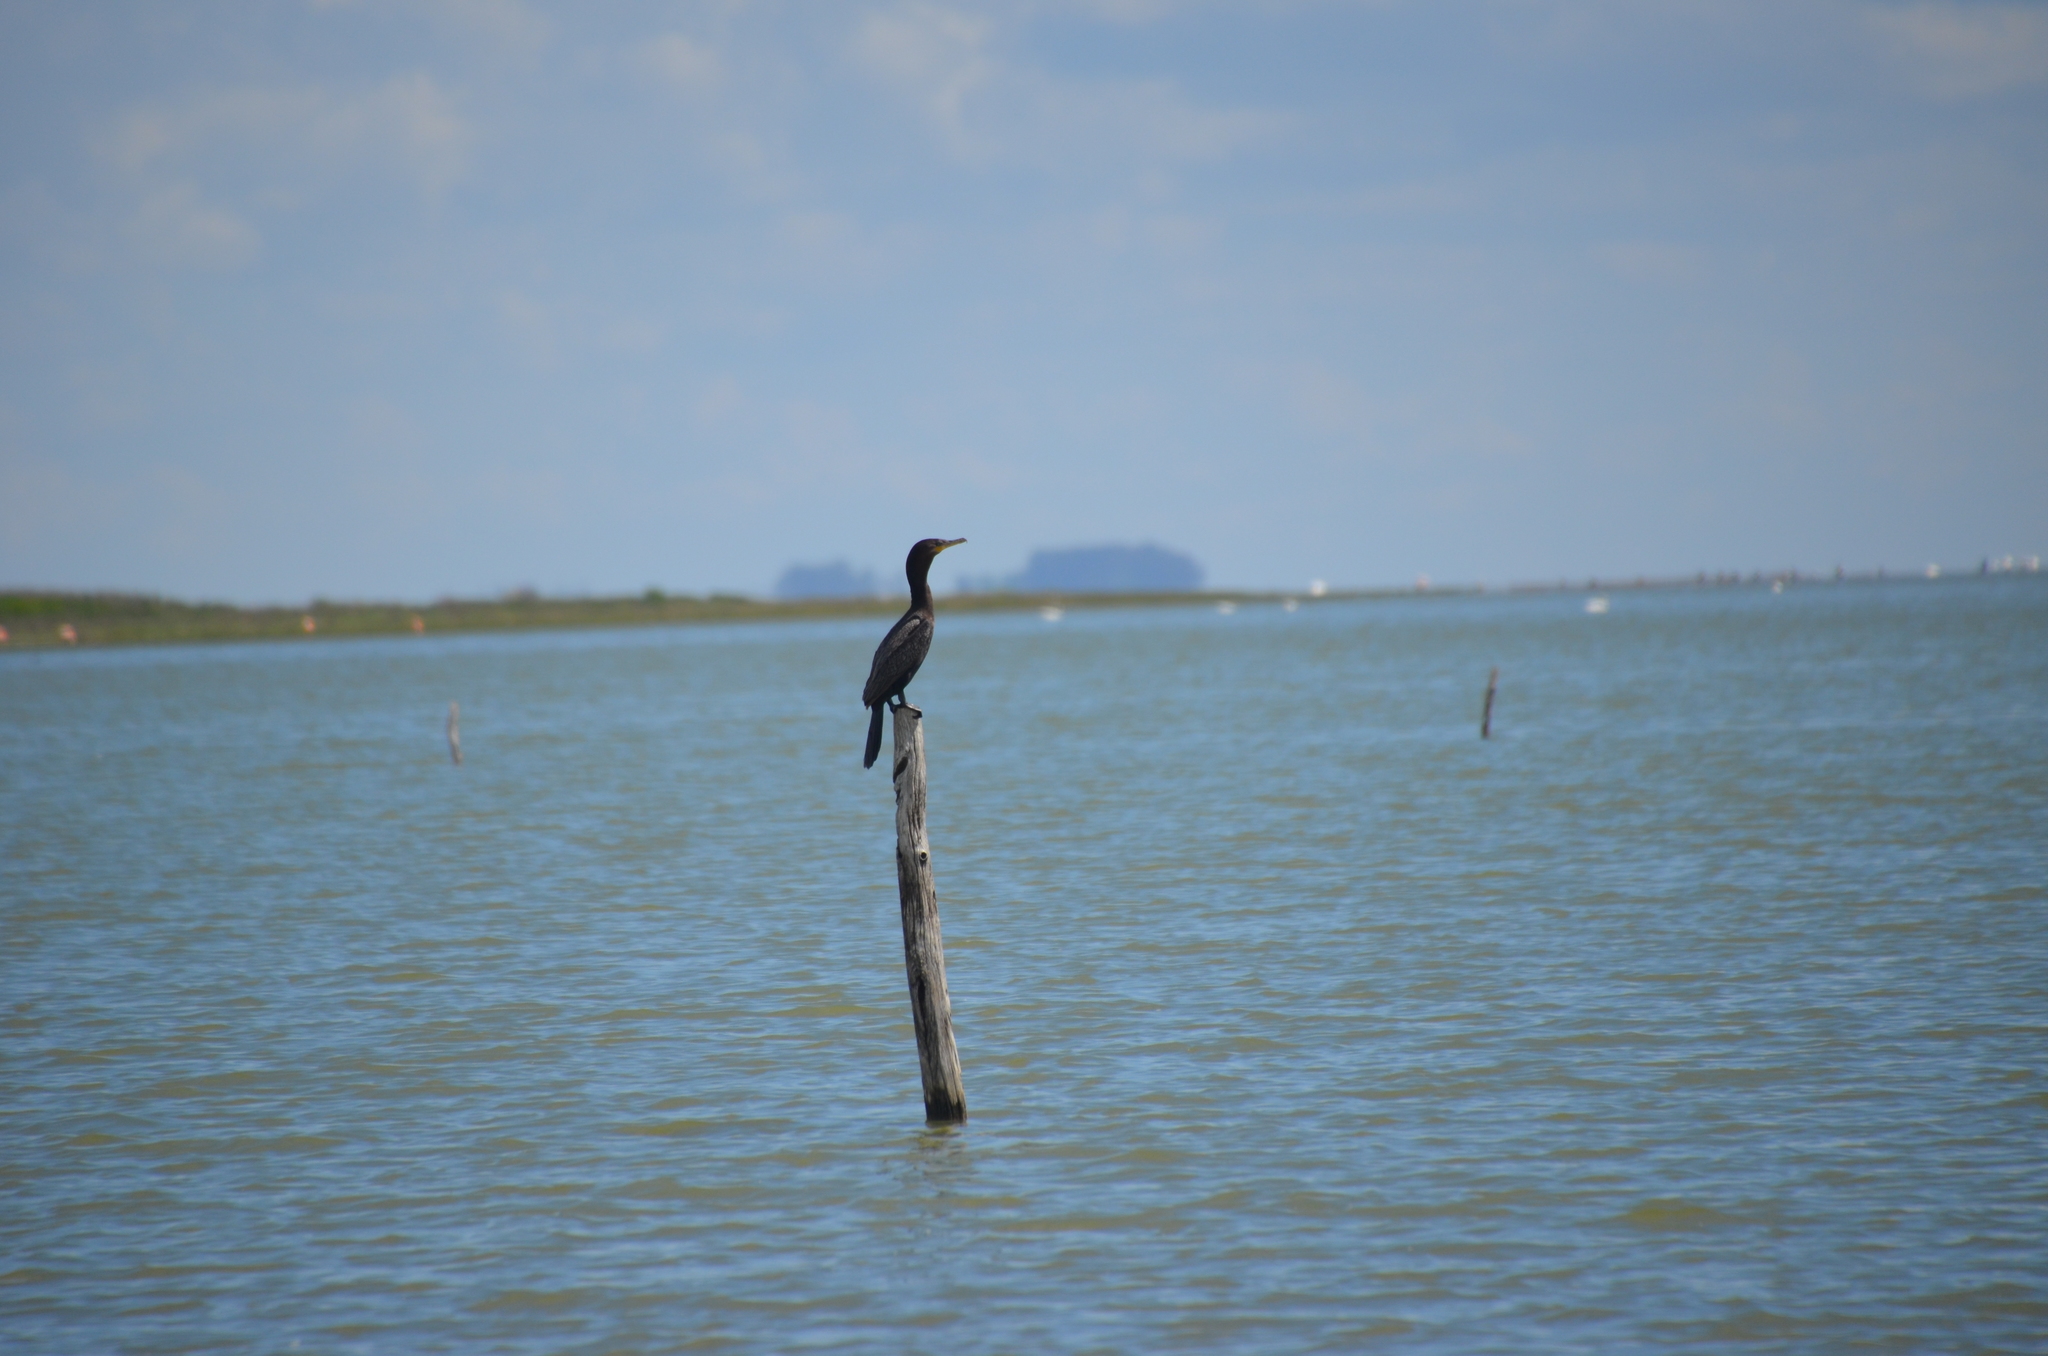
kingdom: Animalia
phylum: Chordata
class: Aves
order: Suliformes
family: Phalacrocoracidae
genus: Phalacrocorax
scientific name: Phalacrocorax brasilianus
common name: Neotropic cormorant
